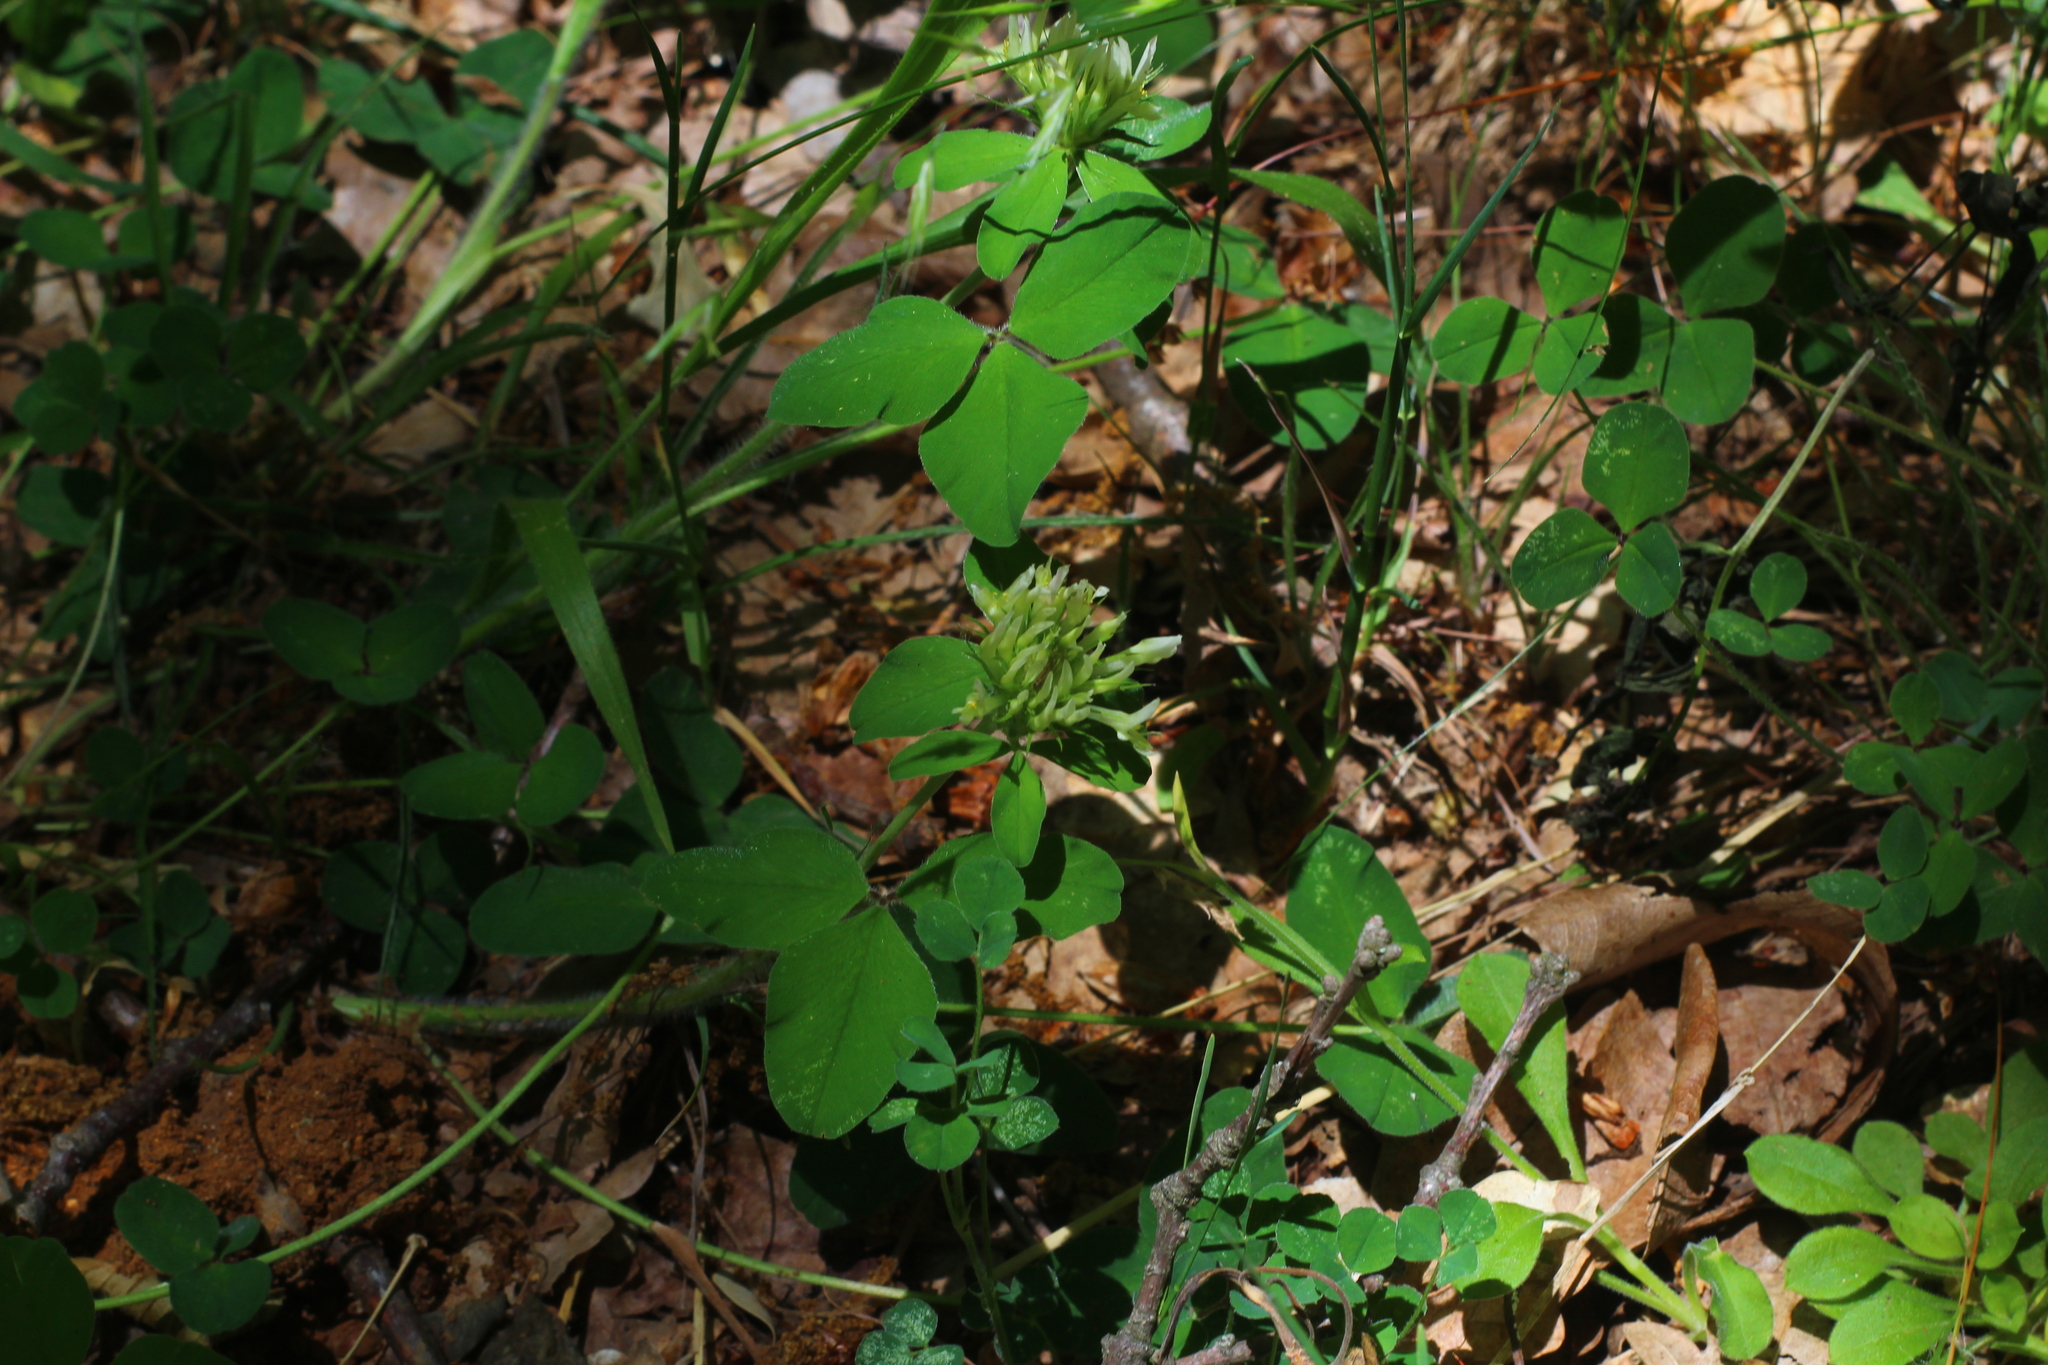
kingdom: Plantae
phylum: Tracheophyta
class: Magnoliopsida
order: Fabales
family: Fabaceae
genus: Trifolium
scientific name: Trifolium ochroleucon
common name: Sulphur clover
